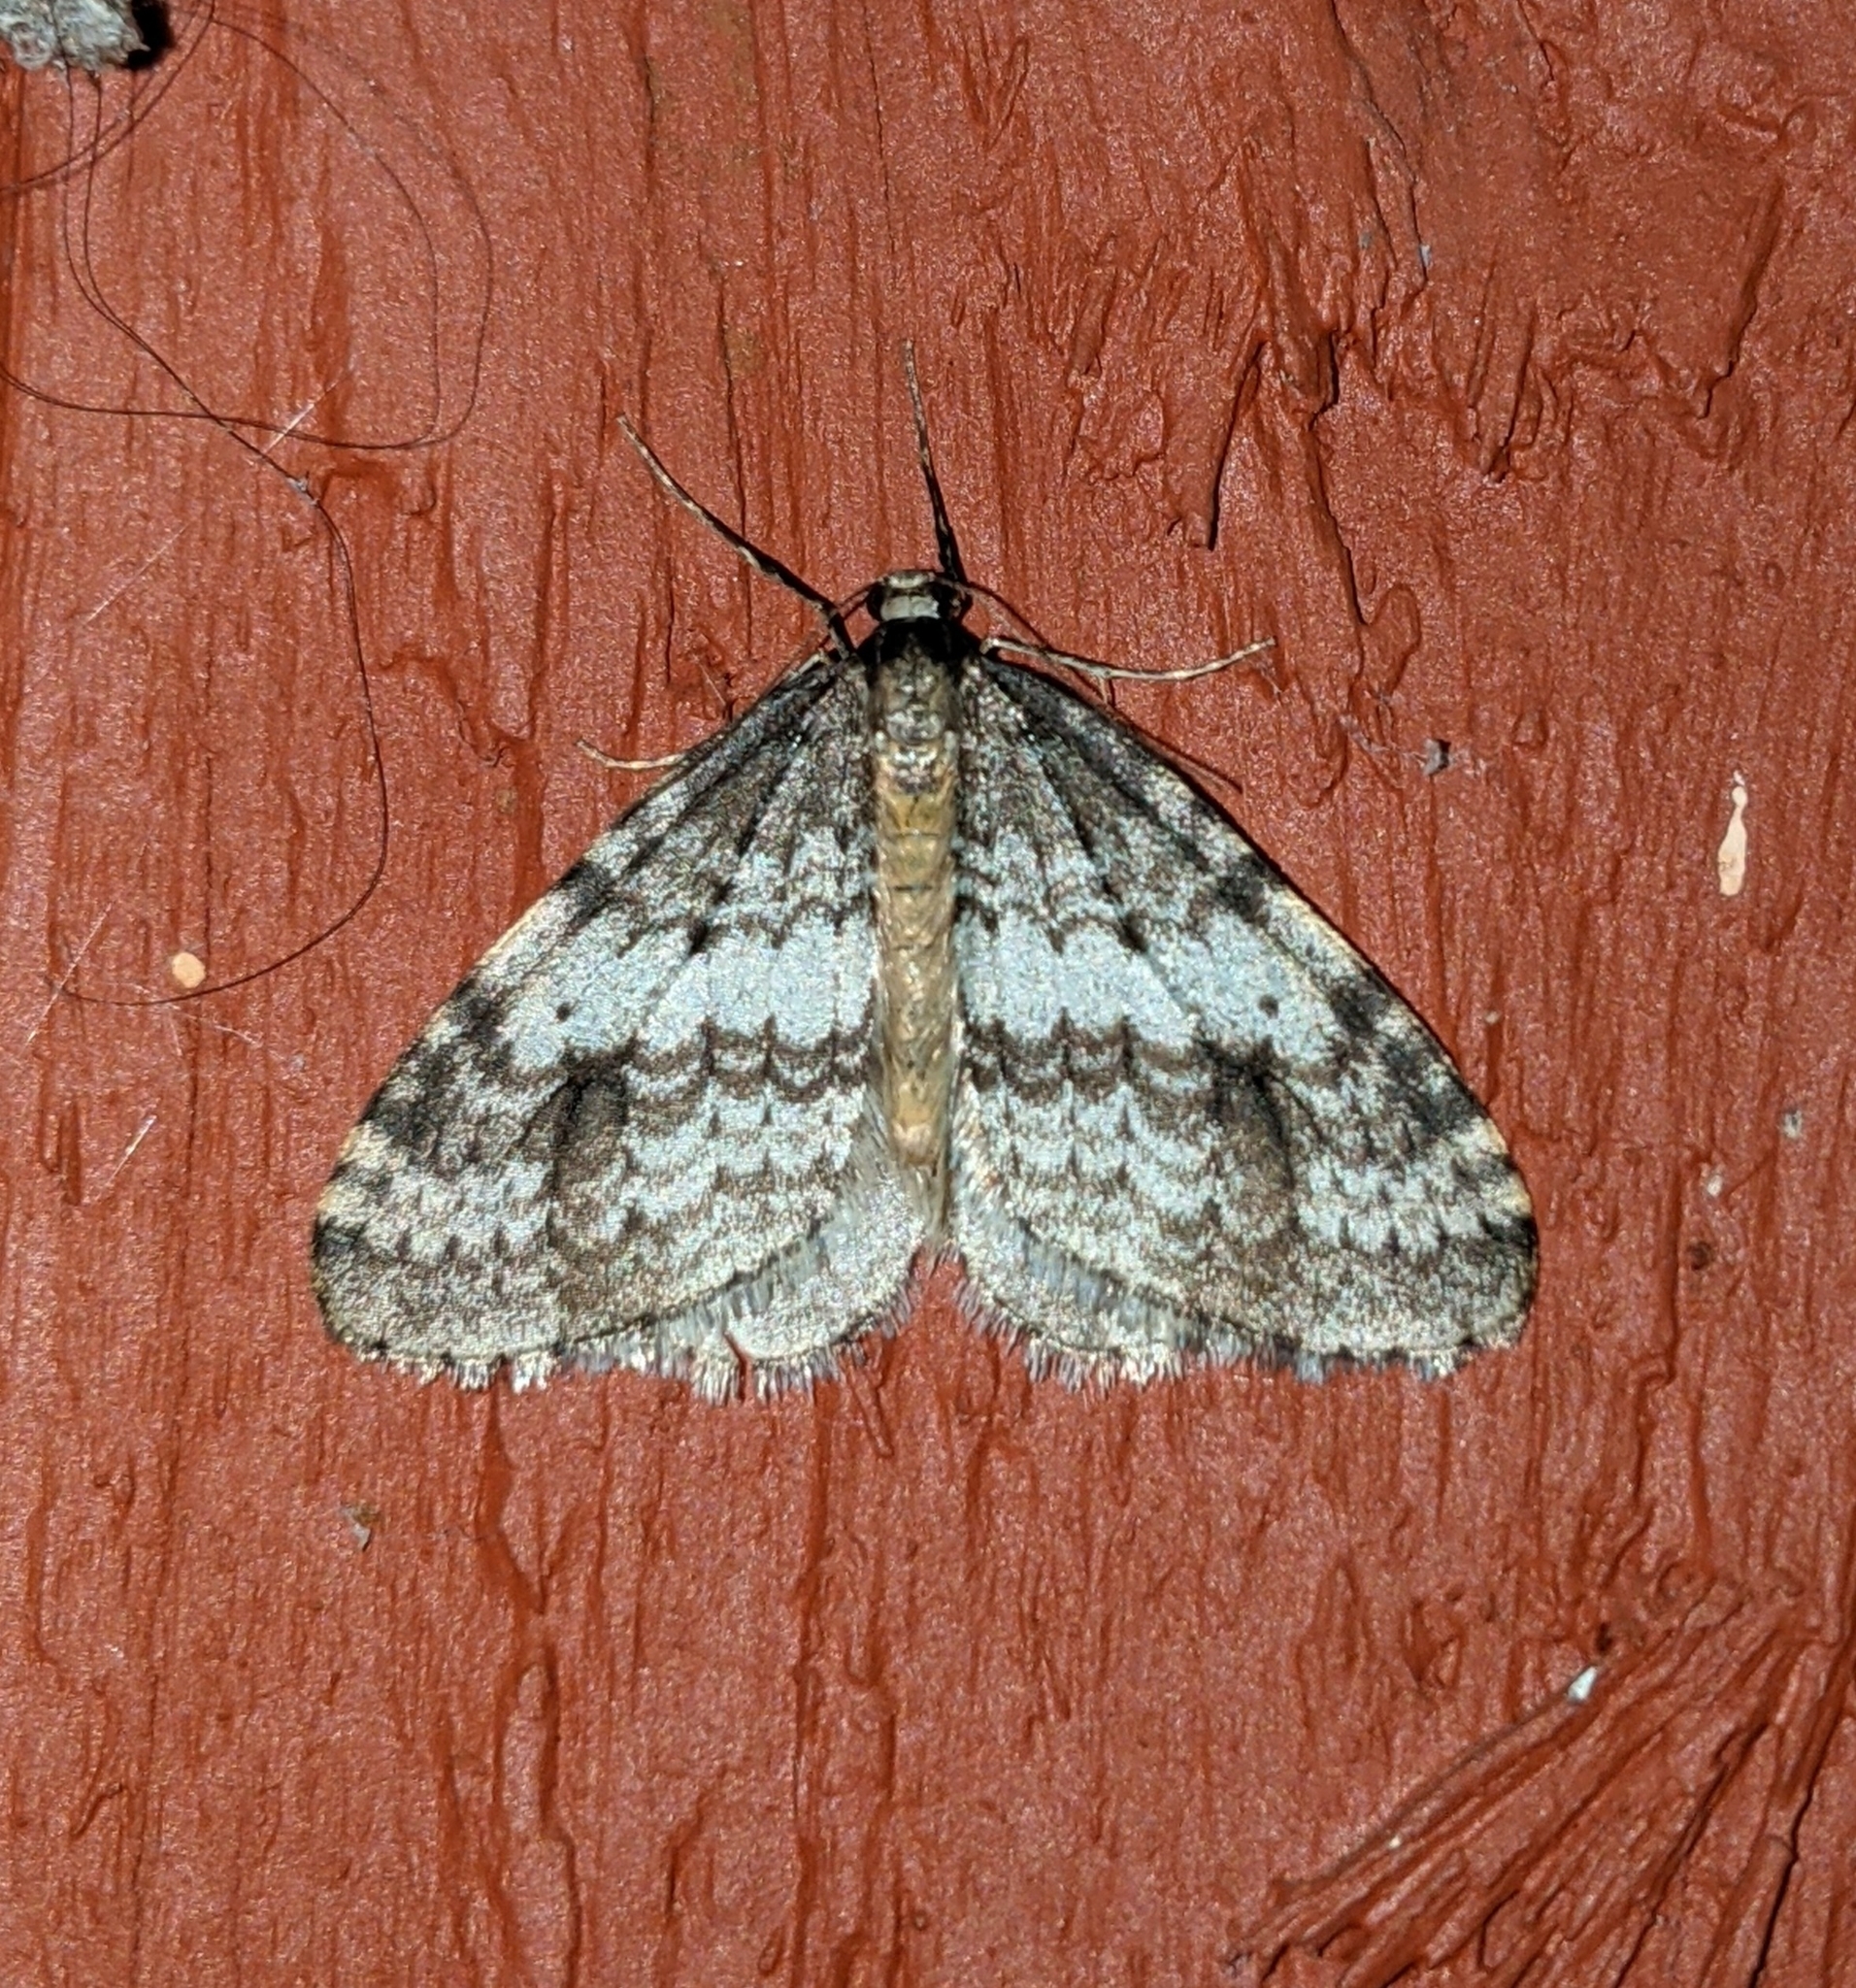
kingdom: Animalia
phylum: Arthropoda
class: Insecta
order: Lepidoptera
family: Geometridae
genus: Operophtera
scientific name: Operophtera occidentalis
